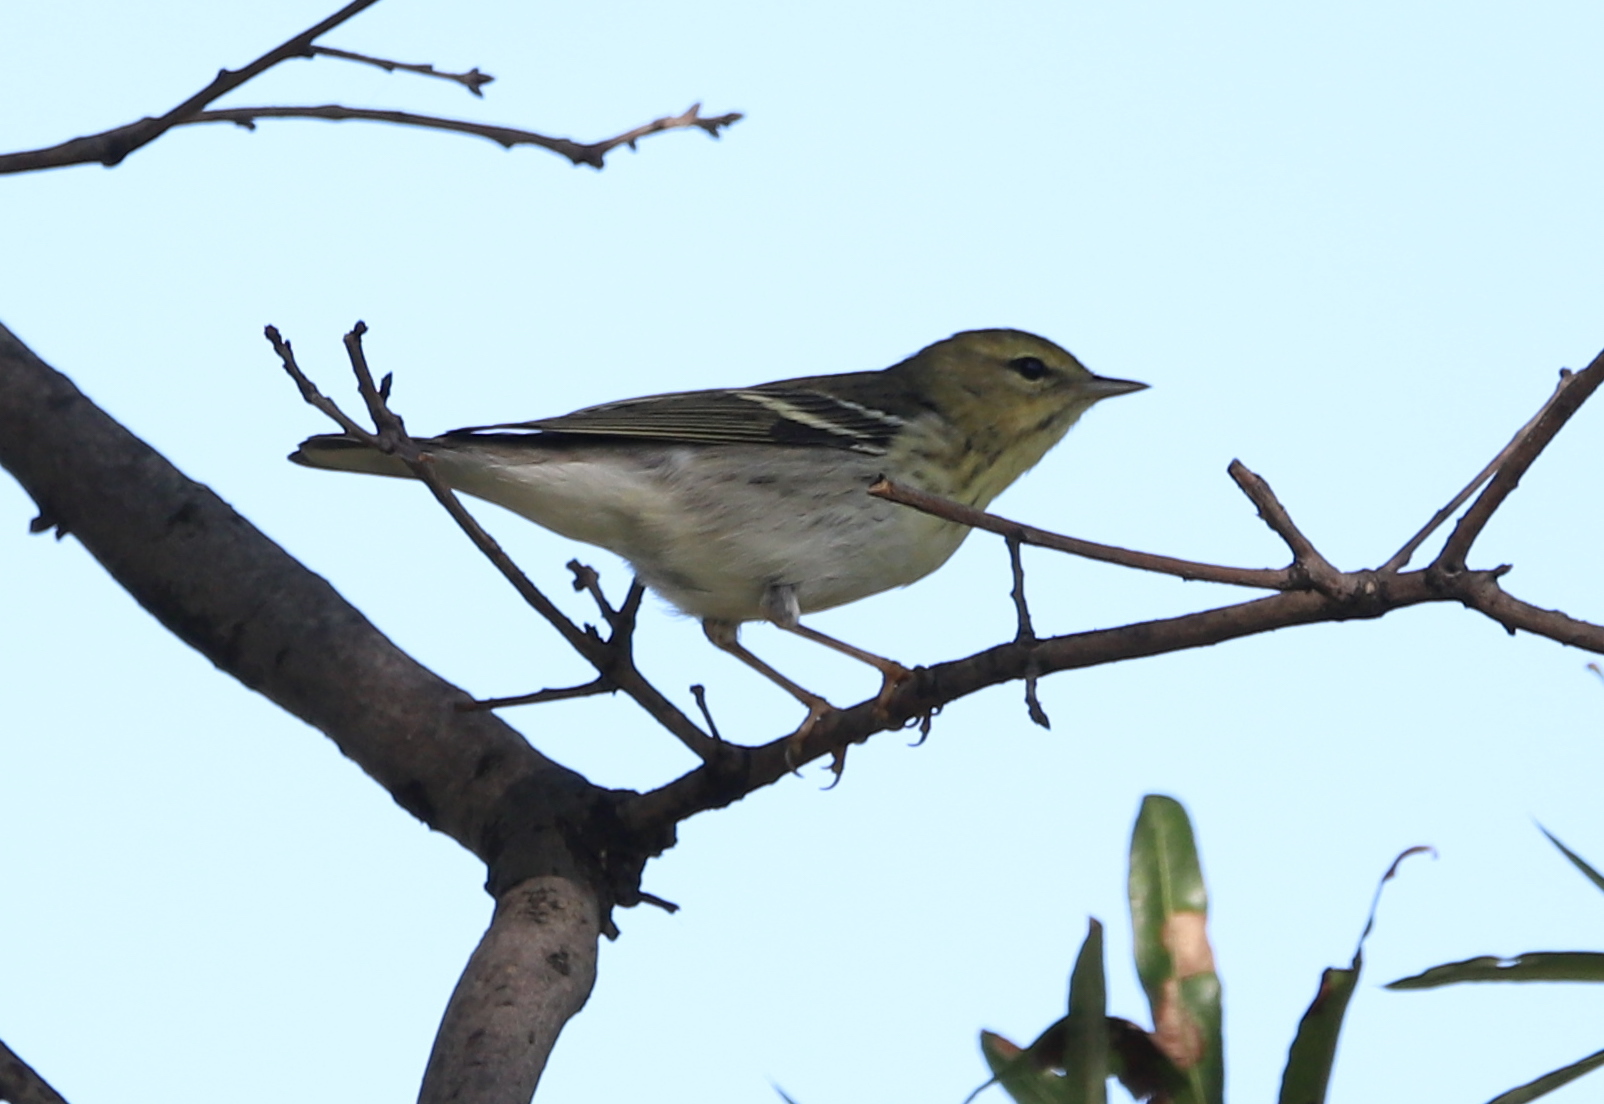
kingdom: Animalia
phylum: Chordata
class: Aves
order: Passeriformes
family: Parulidae
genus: Setophaga
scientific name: Setophaga striata
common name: Blackpoll warbler
